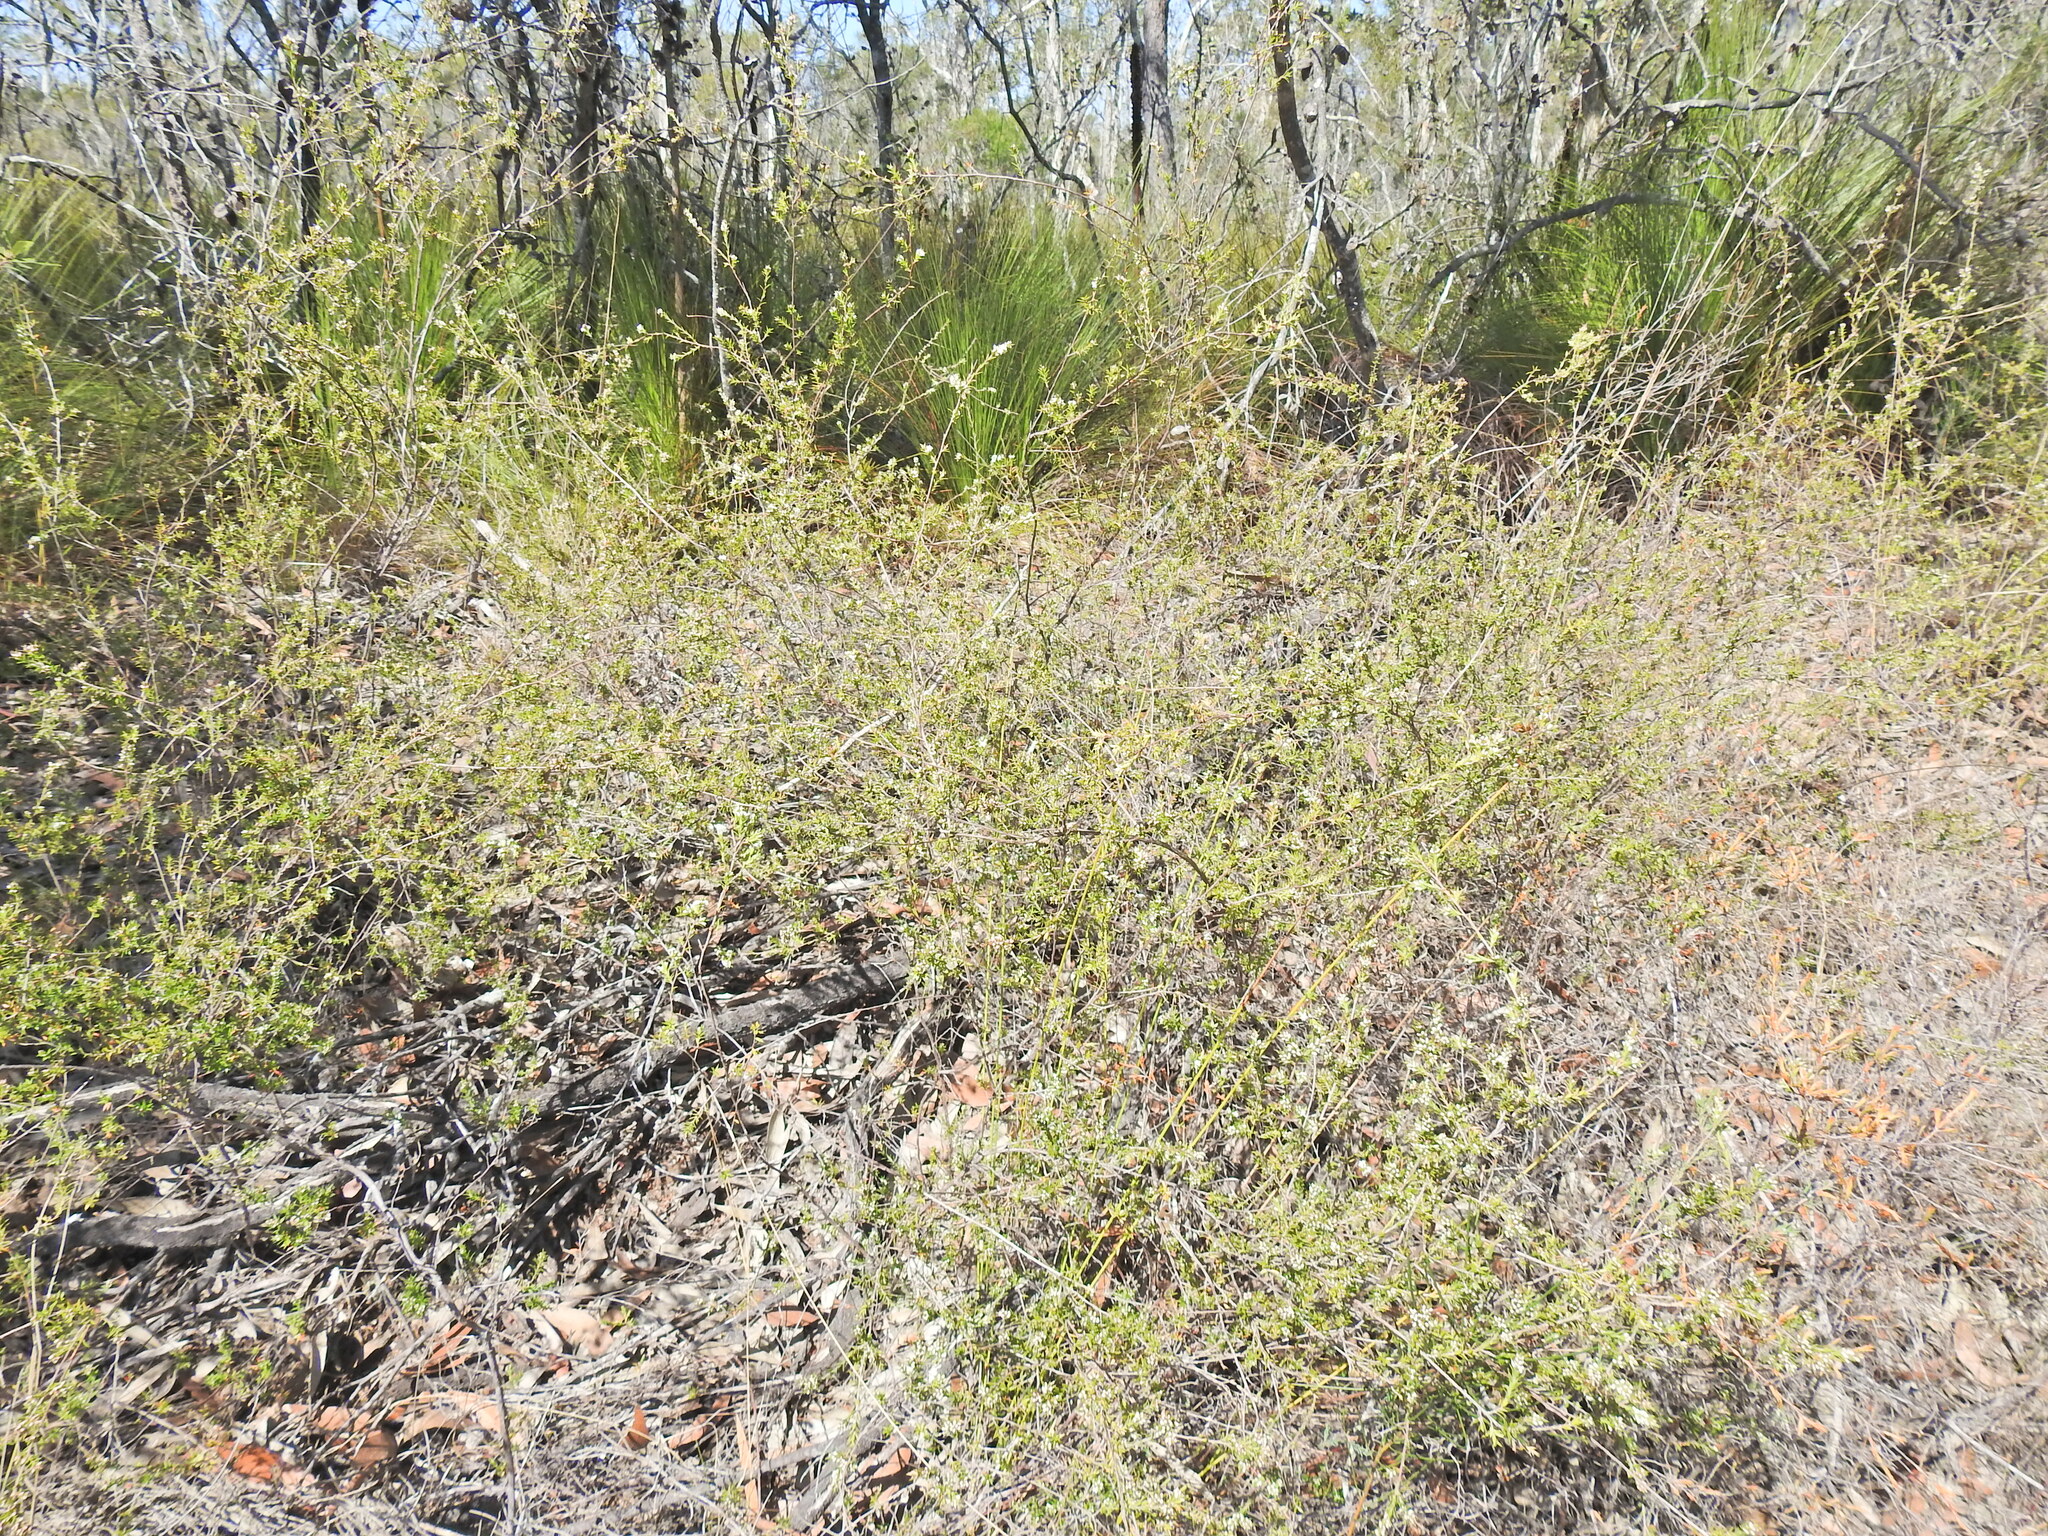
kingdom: Plantae
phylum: Tracheophyta
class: Magnoliopsida
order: Ericales
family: Ericaceae
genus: Styphelia
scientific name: Styphelia
